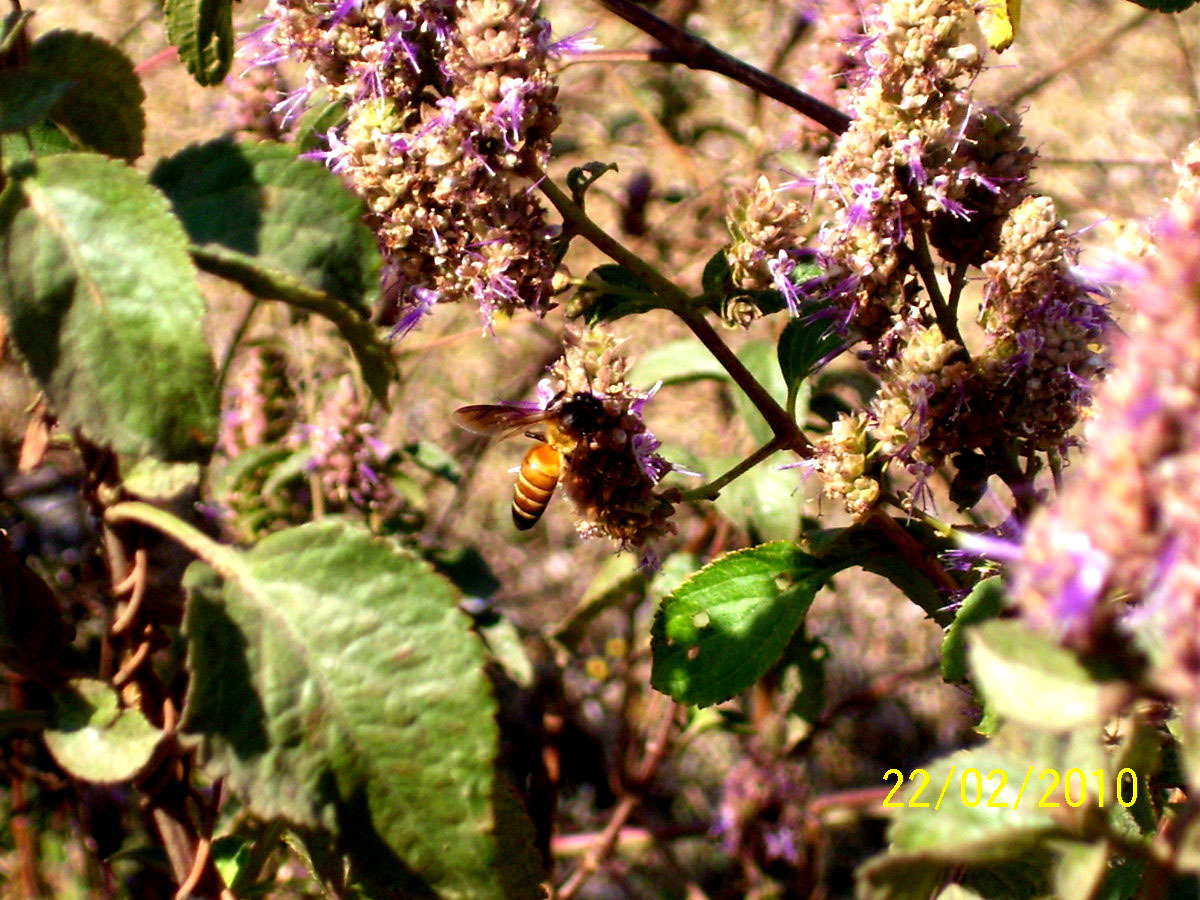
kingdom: Plantae
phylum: Tracheophyta
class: Magnoliopsida
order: Lamiales
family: Lamiaceae
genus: Pogostemon
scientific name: Pogostemon benghalensis
